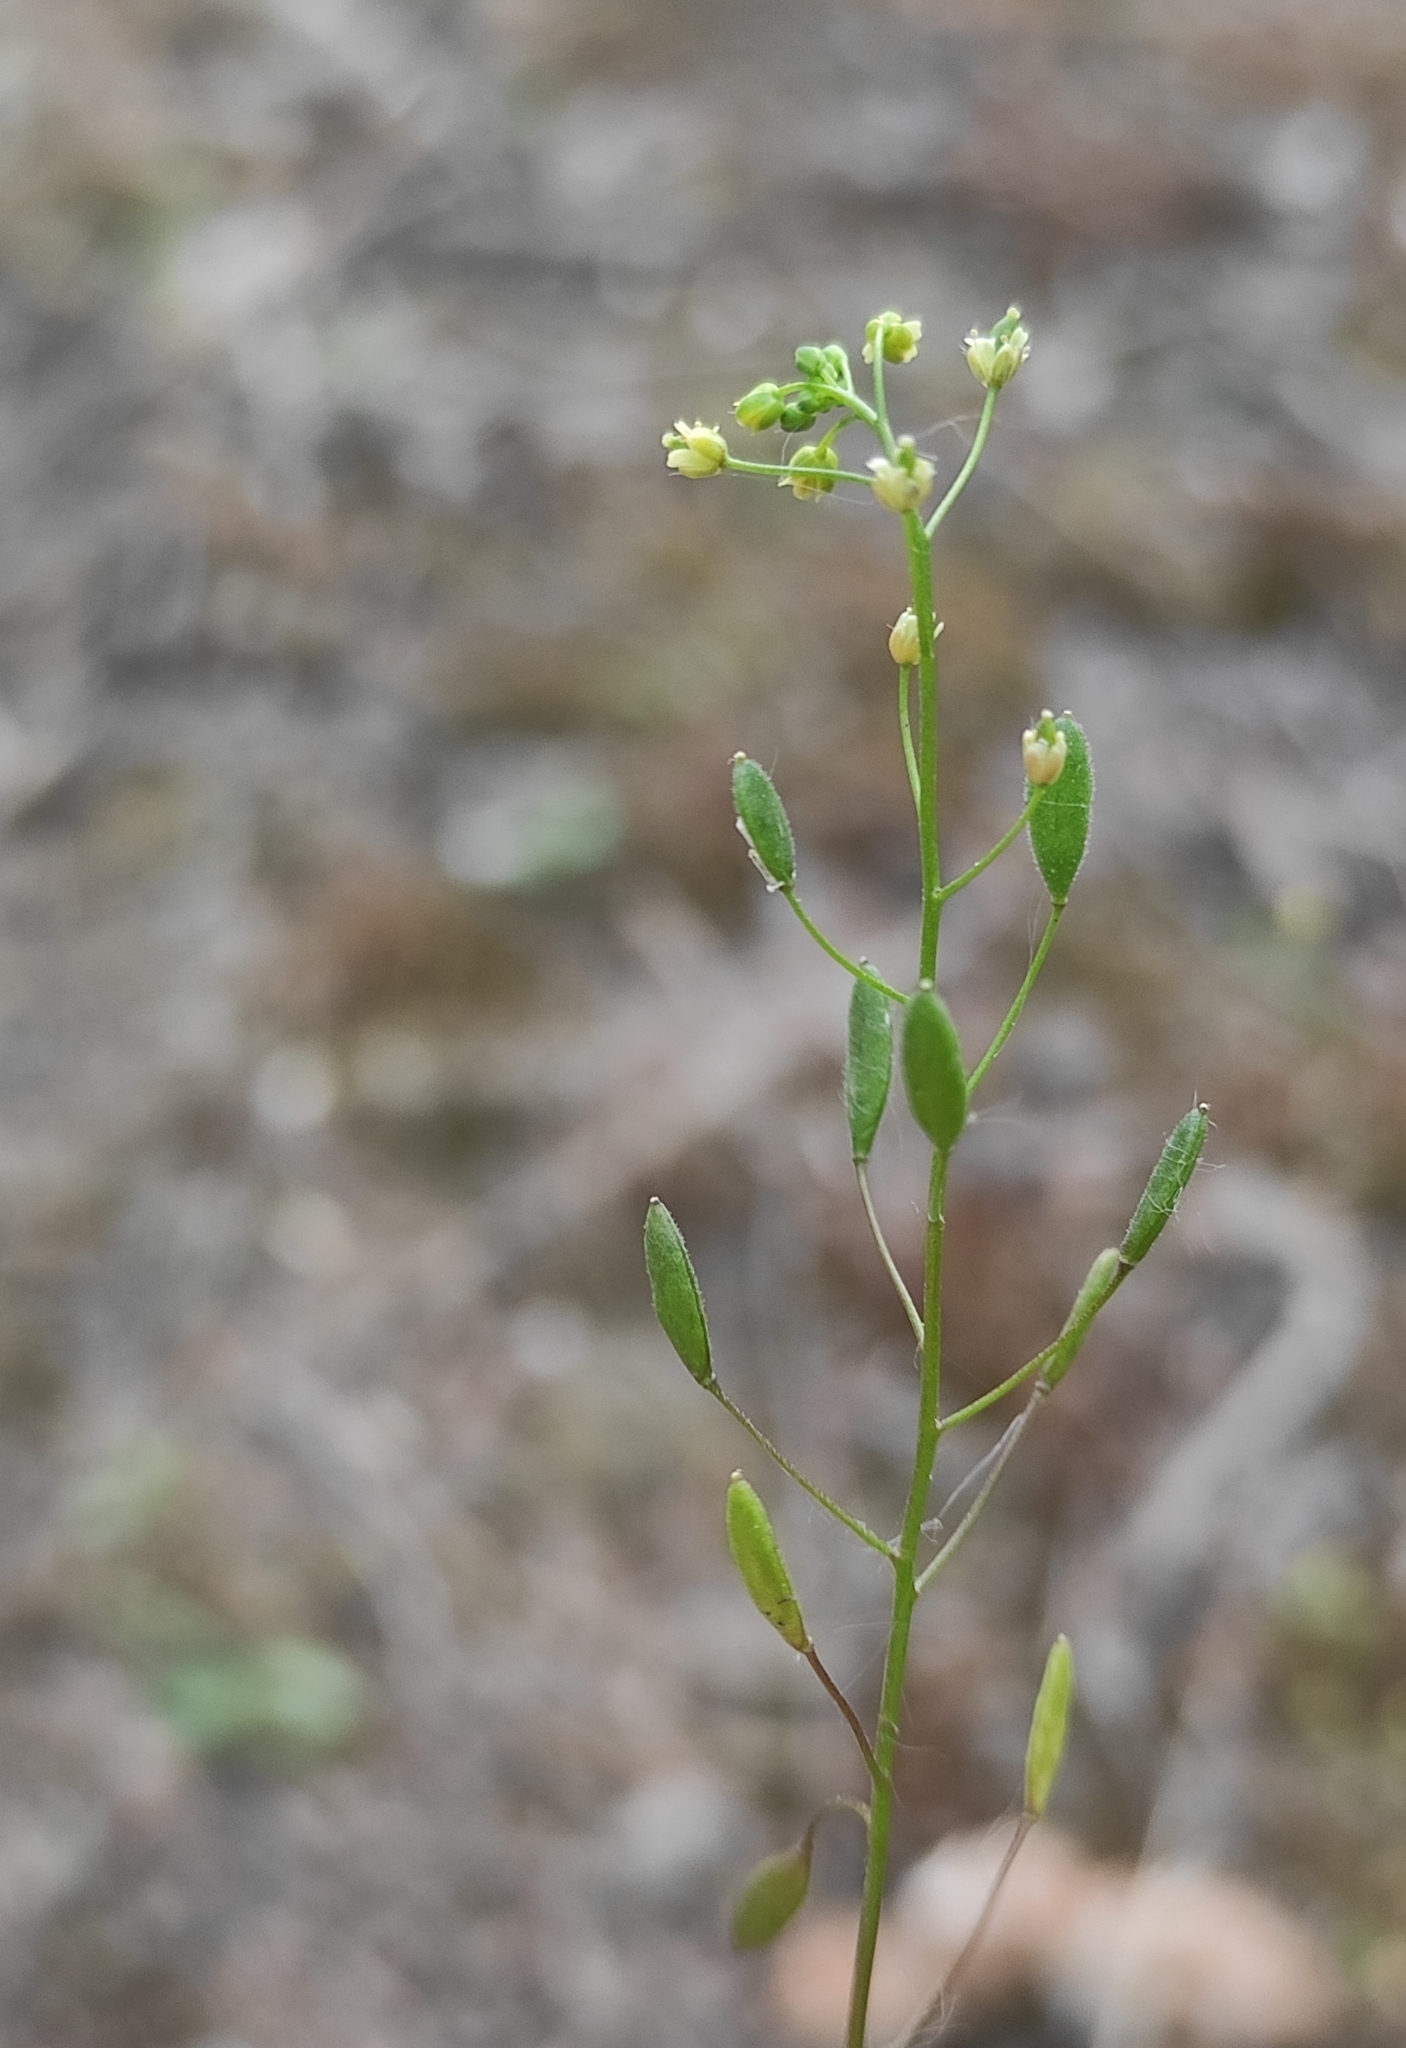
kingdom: Plantae
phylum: Tracheophyta
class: Magnoliopsida
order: Brassicales
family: Brassicaceae
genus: Draba
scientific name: Draba nemorosa
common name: Wood whitlow-grass
